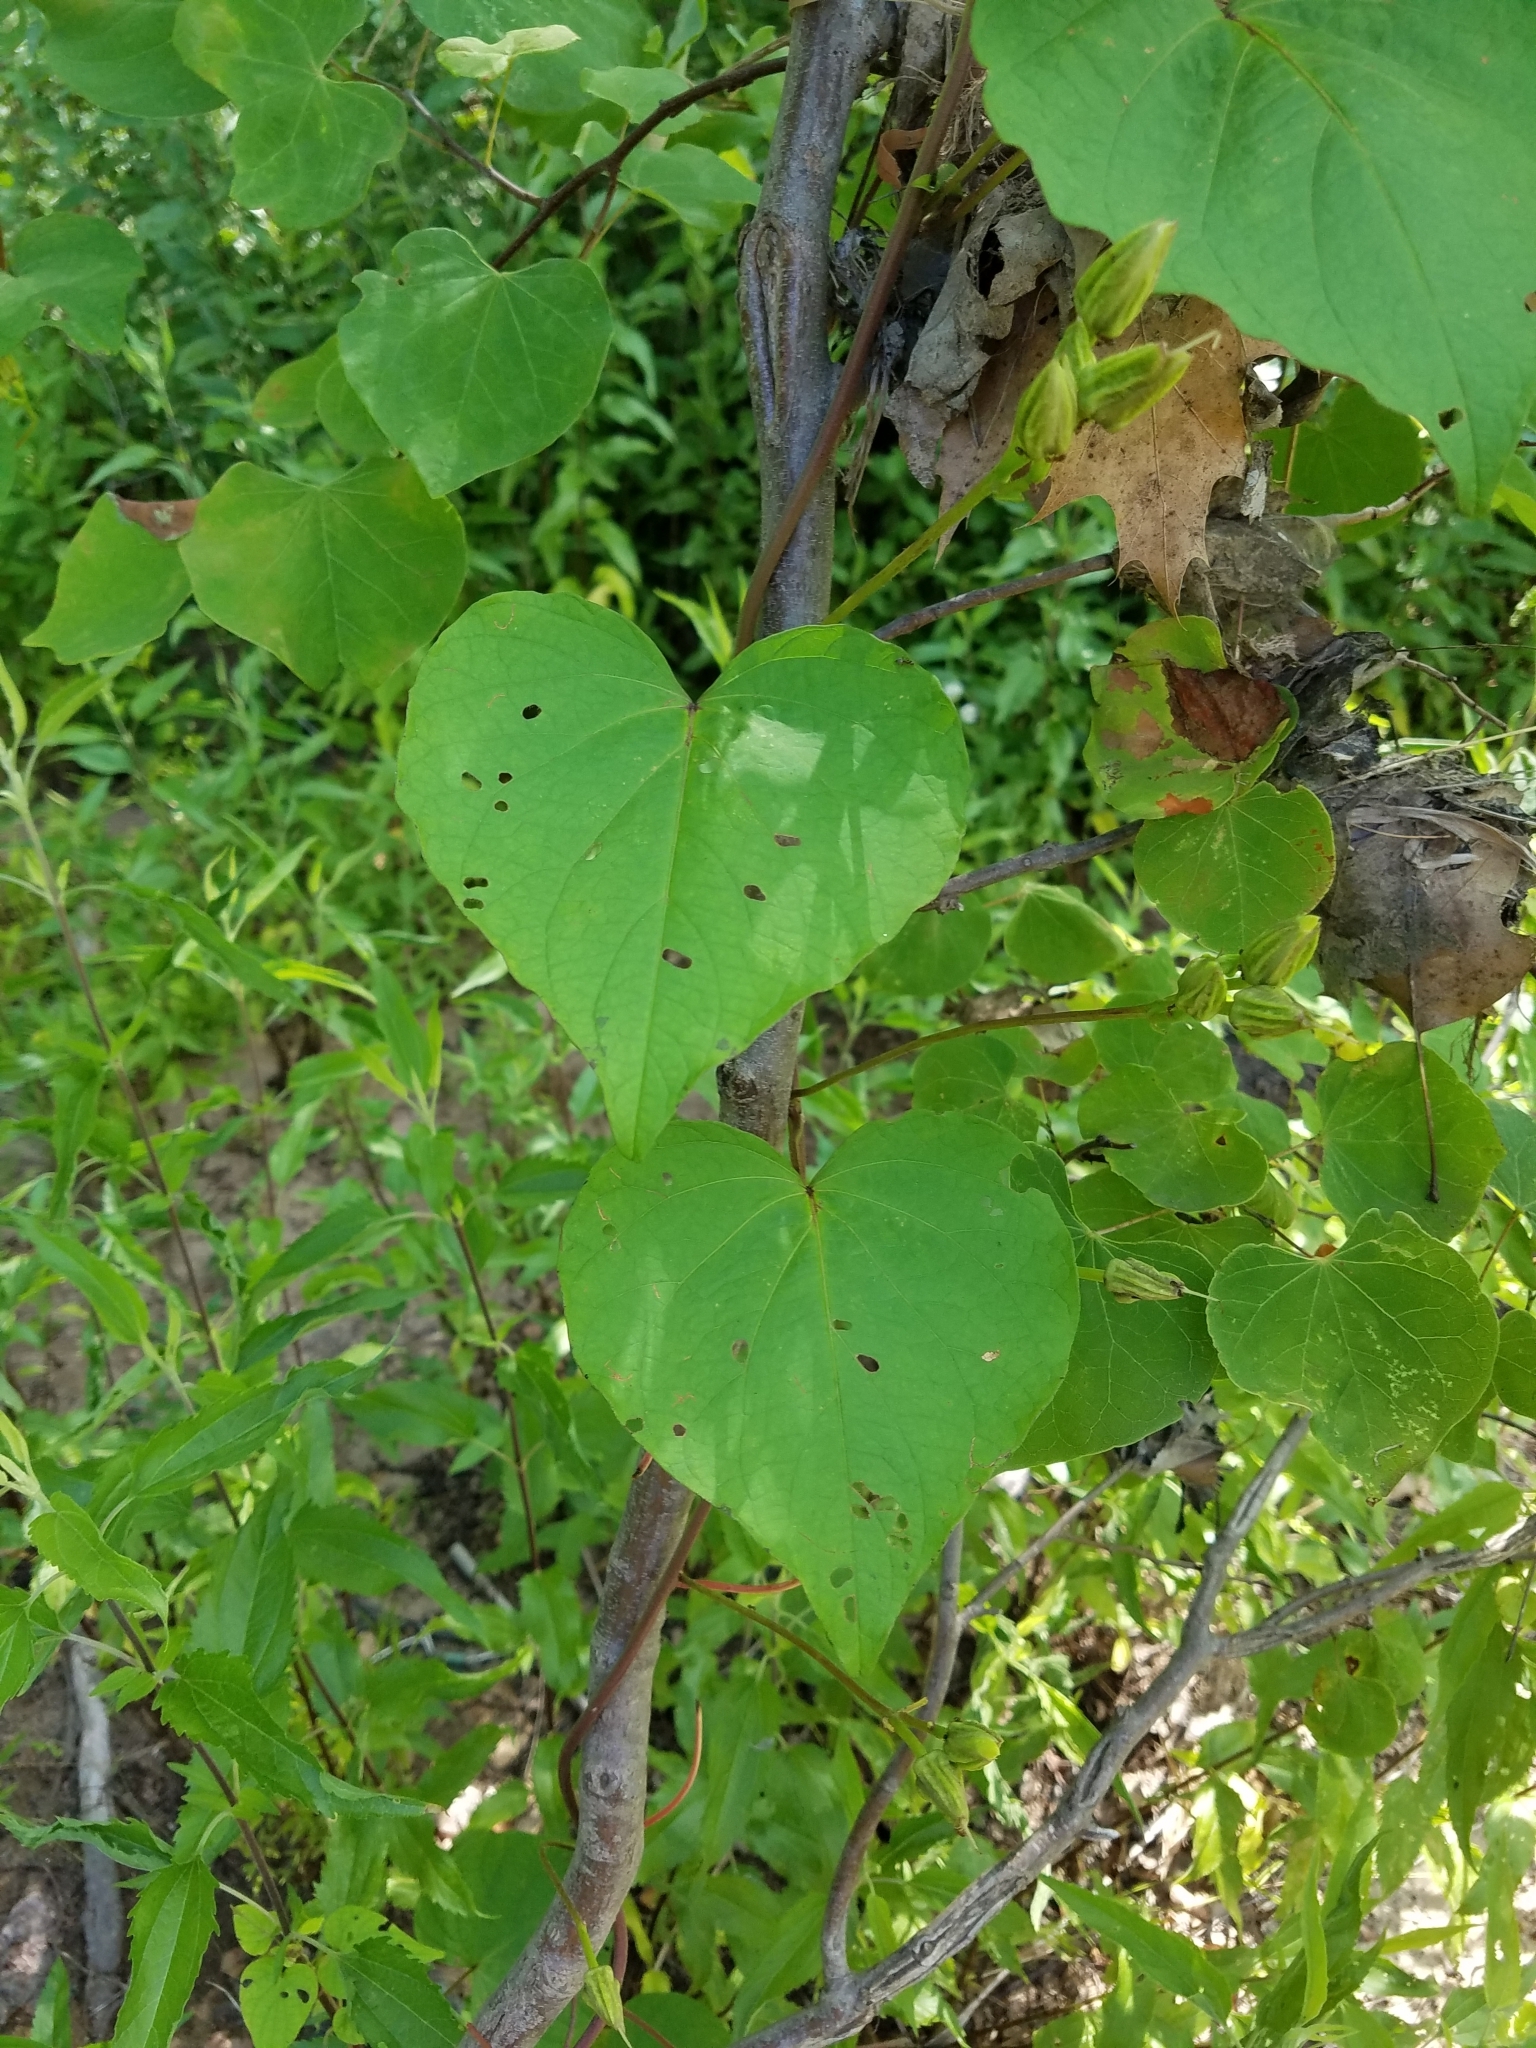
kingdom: Plantae
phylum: Tracheophyta
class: Magnoliopsida
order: Solanales
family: Convolvulaceae
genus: Ipomoea
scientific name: Ipomoea pandurata
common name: Man-of-the-earth
